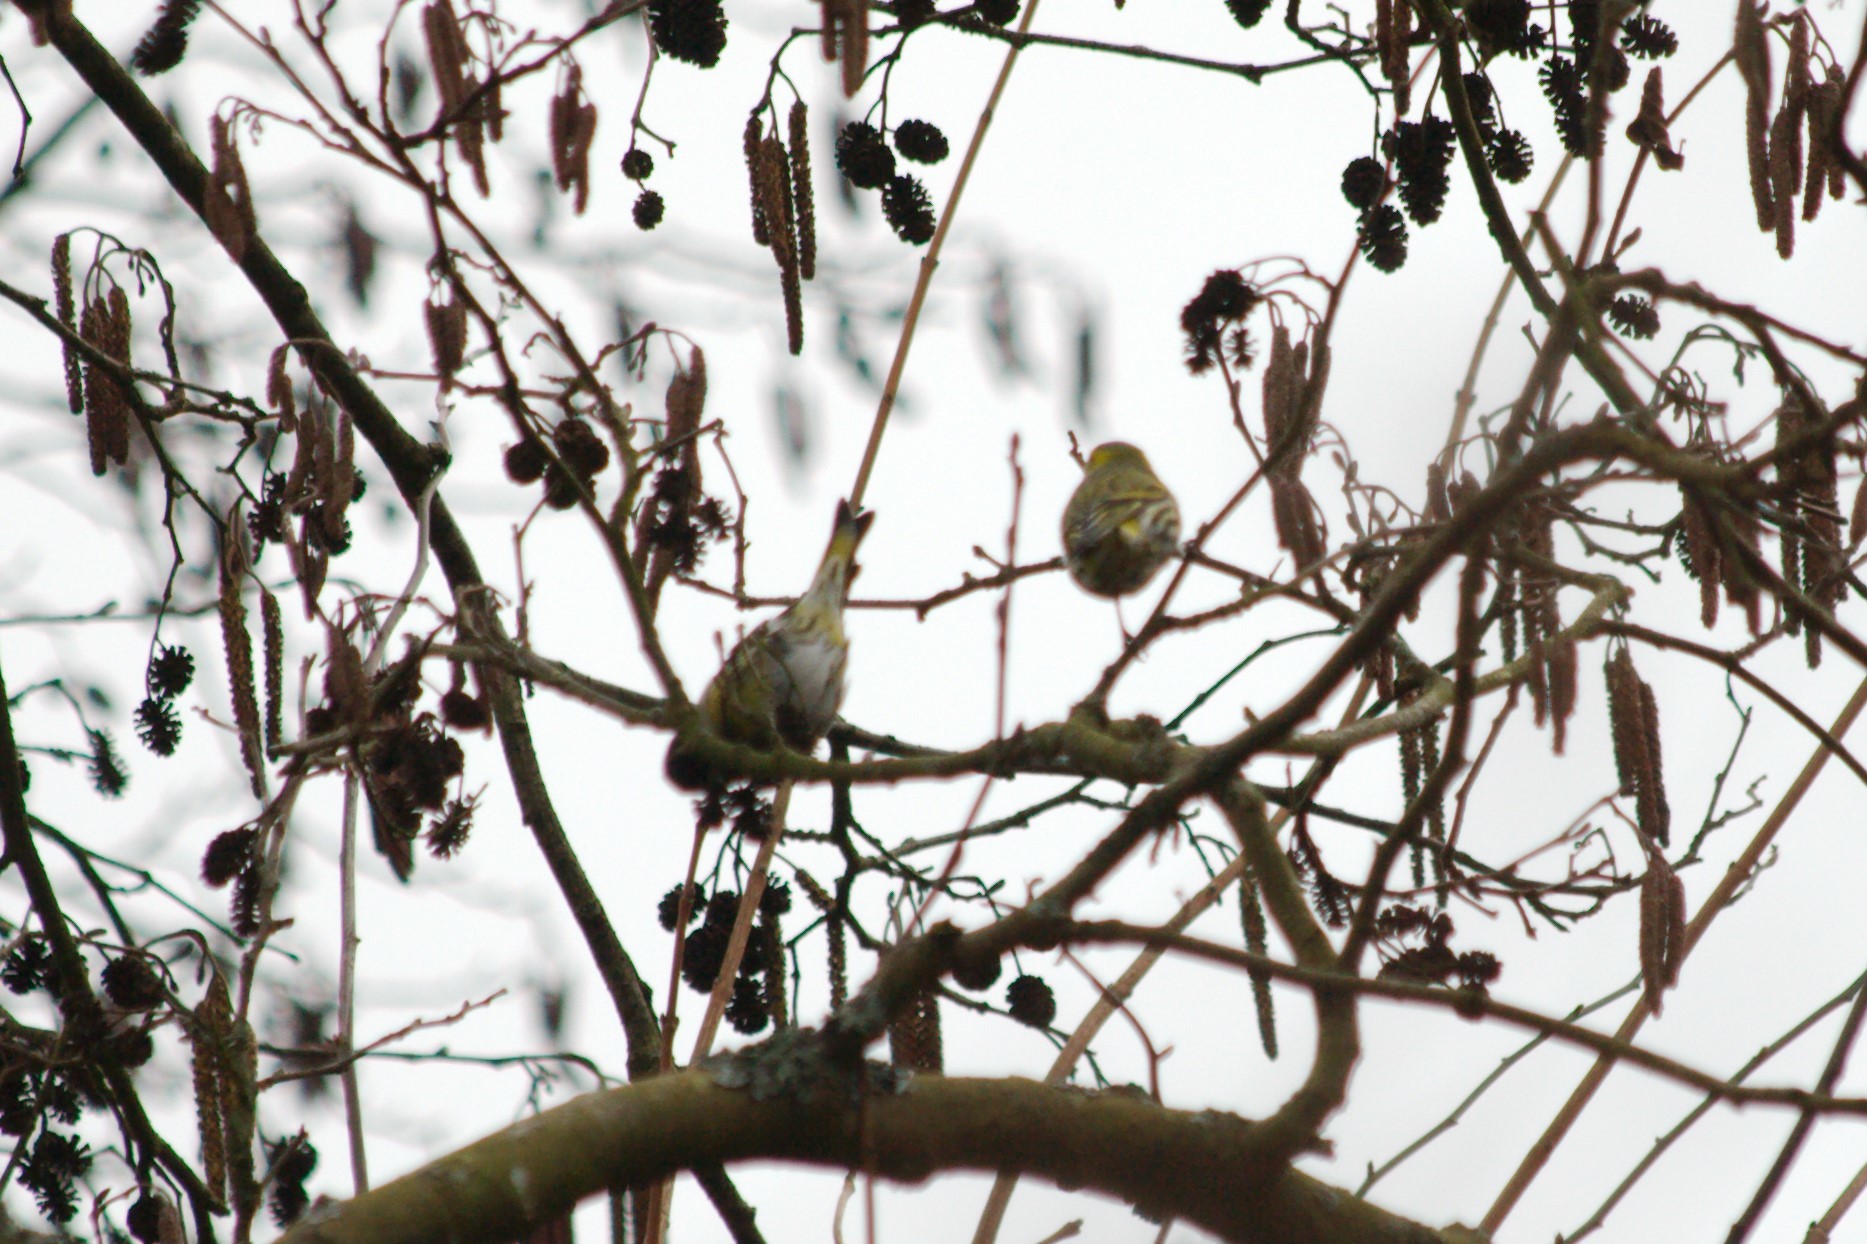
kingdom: Animalia
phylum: Chordata
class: Aves
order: Passeriformes
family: Fringillidae
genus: Spinus
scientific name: Spinus spinus
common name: Eurasian siskin
